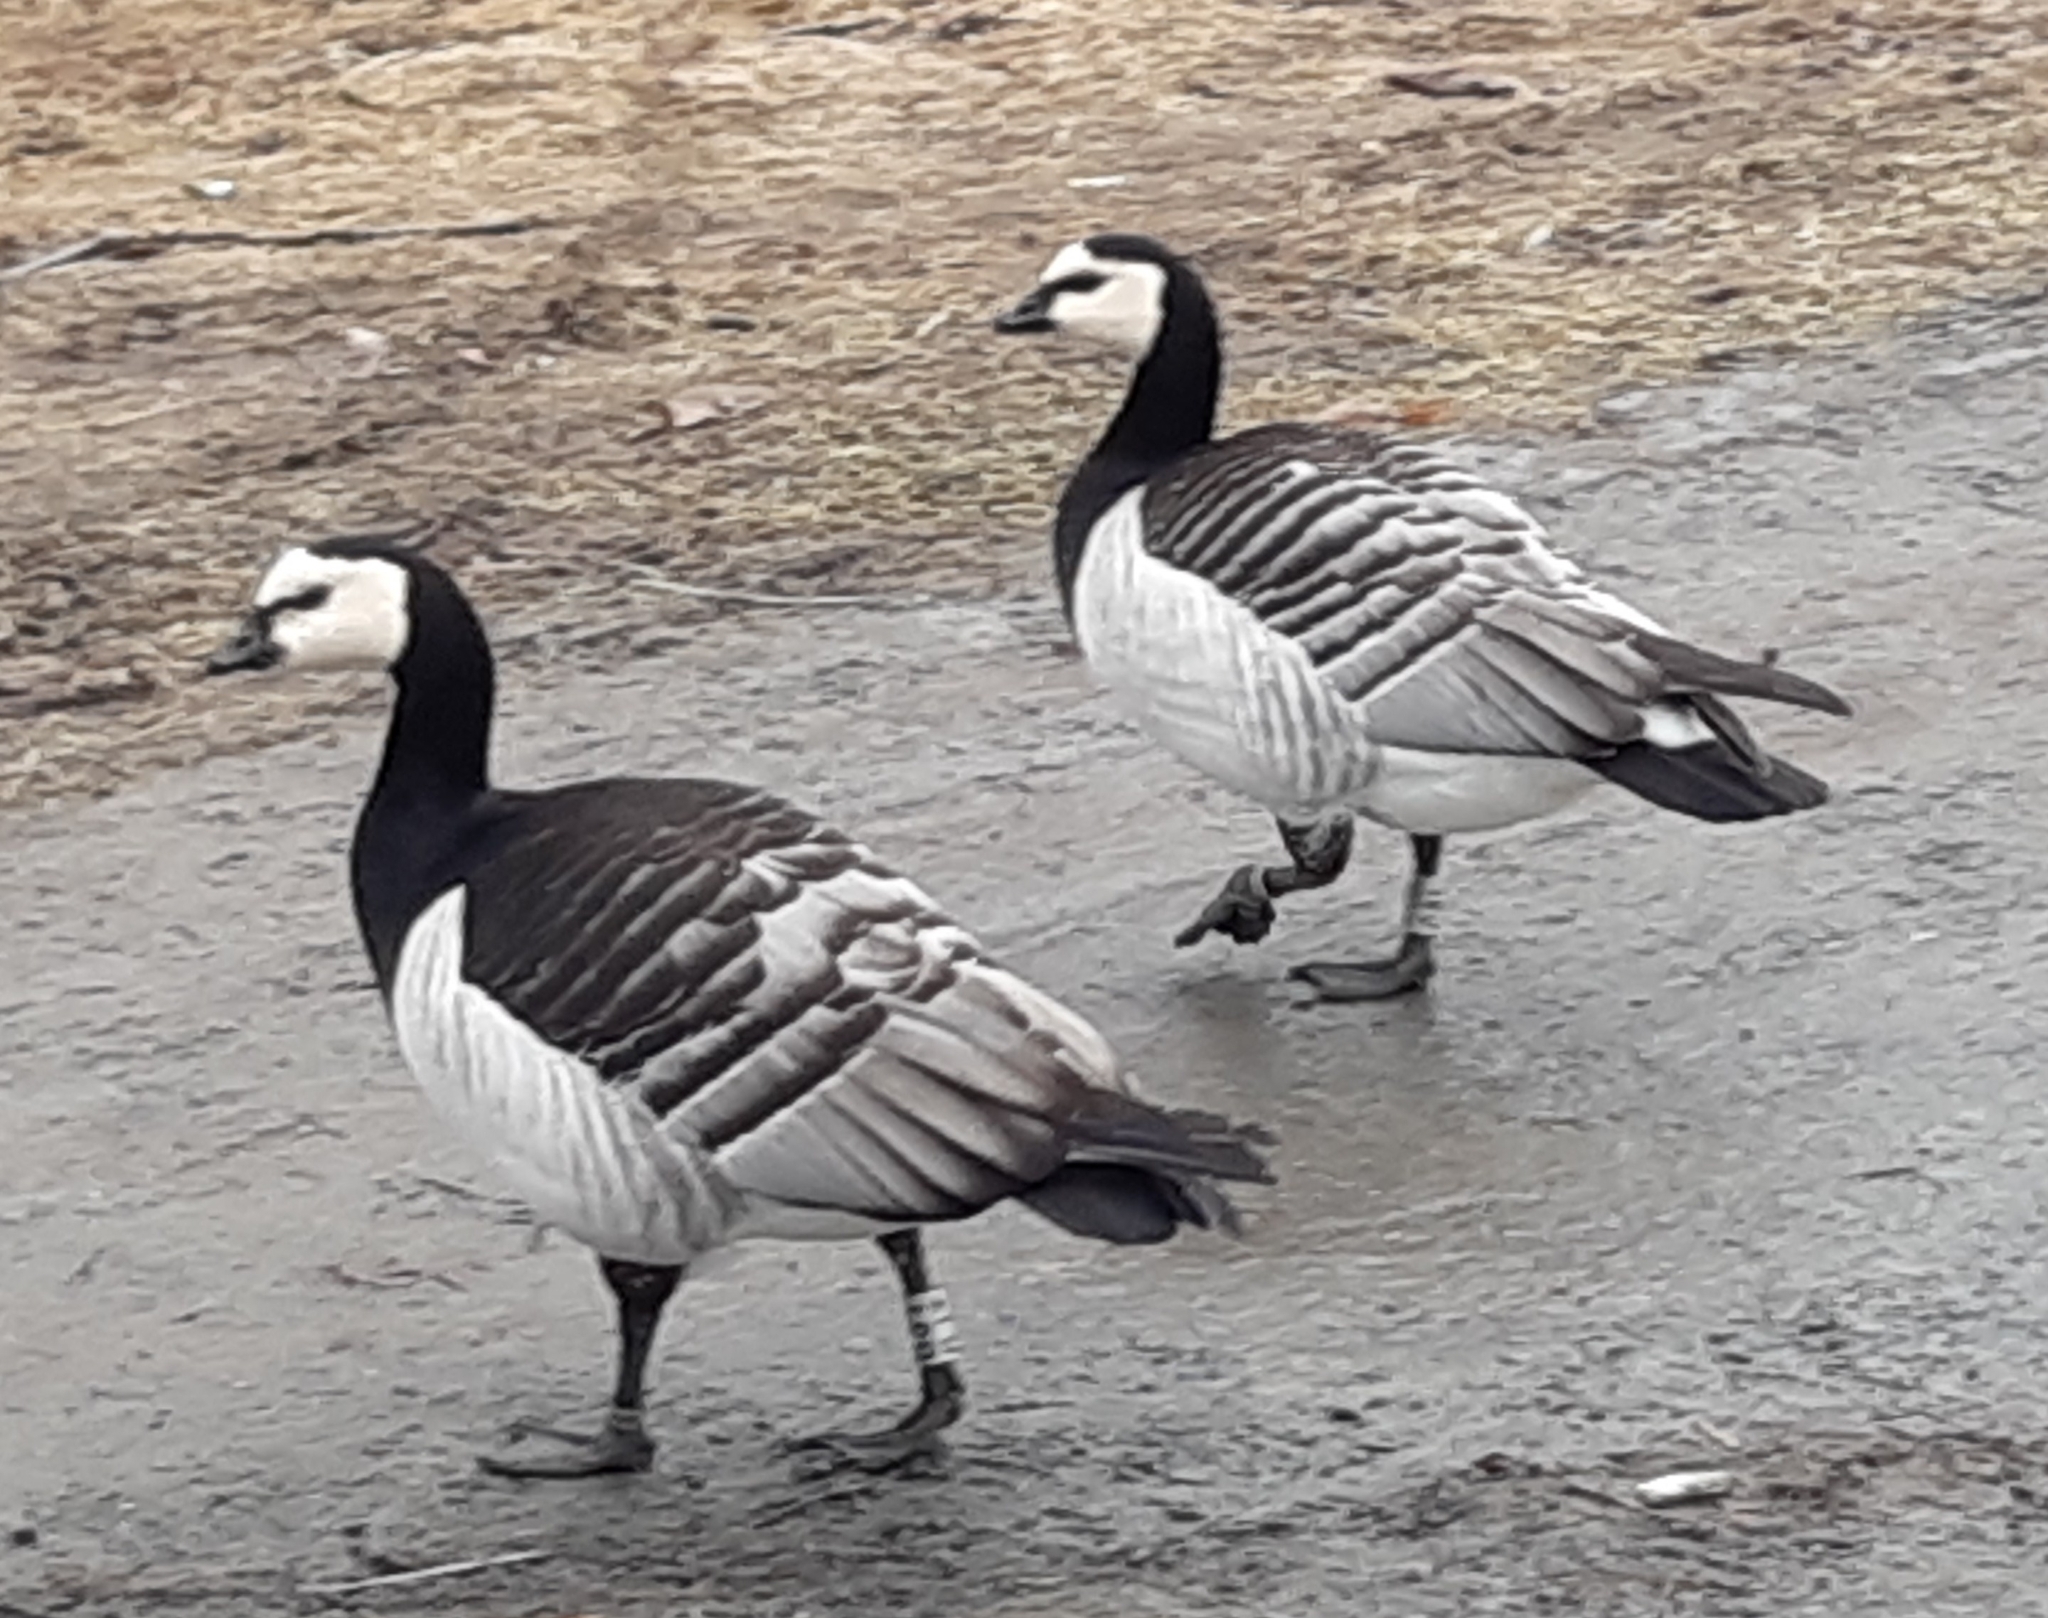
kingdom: Animalia
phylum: Chordata
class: Aves
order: Anseriformes
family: Anatidae
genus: Branta
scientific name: Branta leucopsis
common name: Barnacle goose
